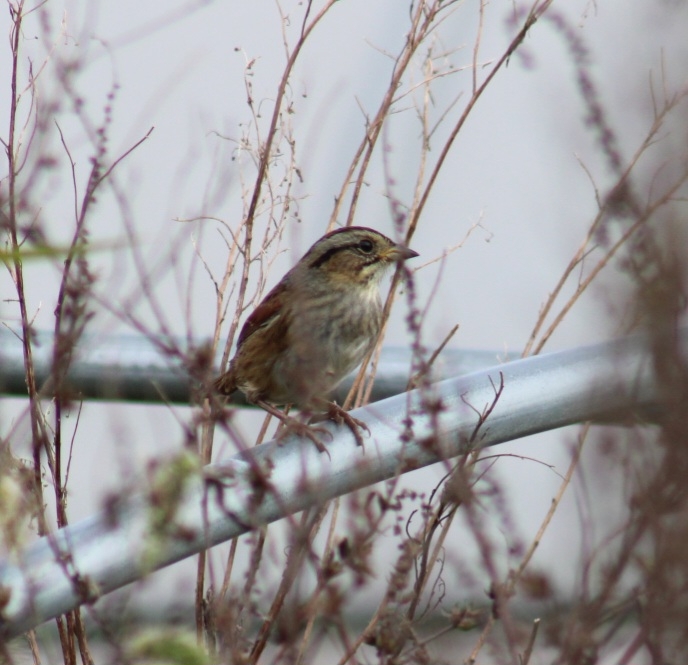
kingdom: Animalia
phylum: Chordata
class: Aves
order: Passeriformes
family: Passerellidae
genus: Melospiza
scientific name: Melospiza georgiana
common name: Swamp sparrow
